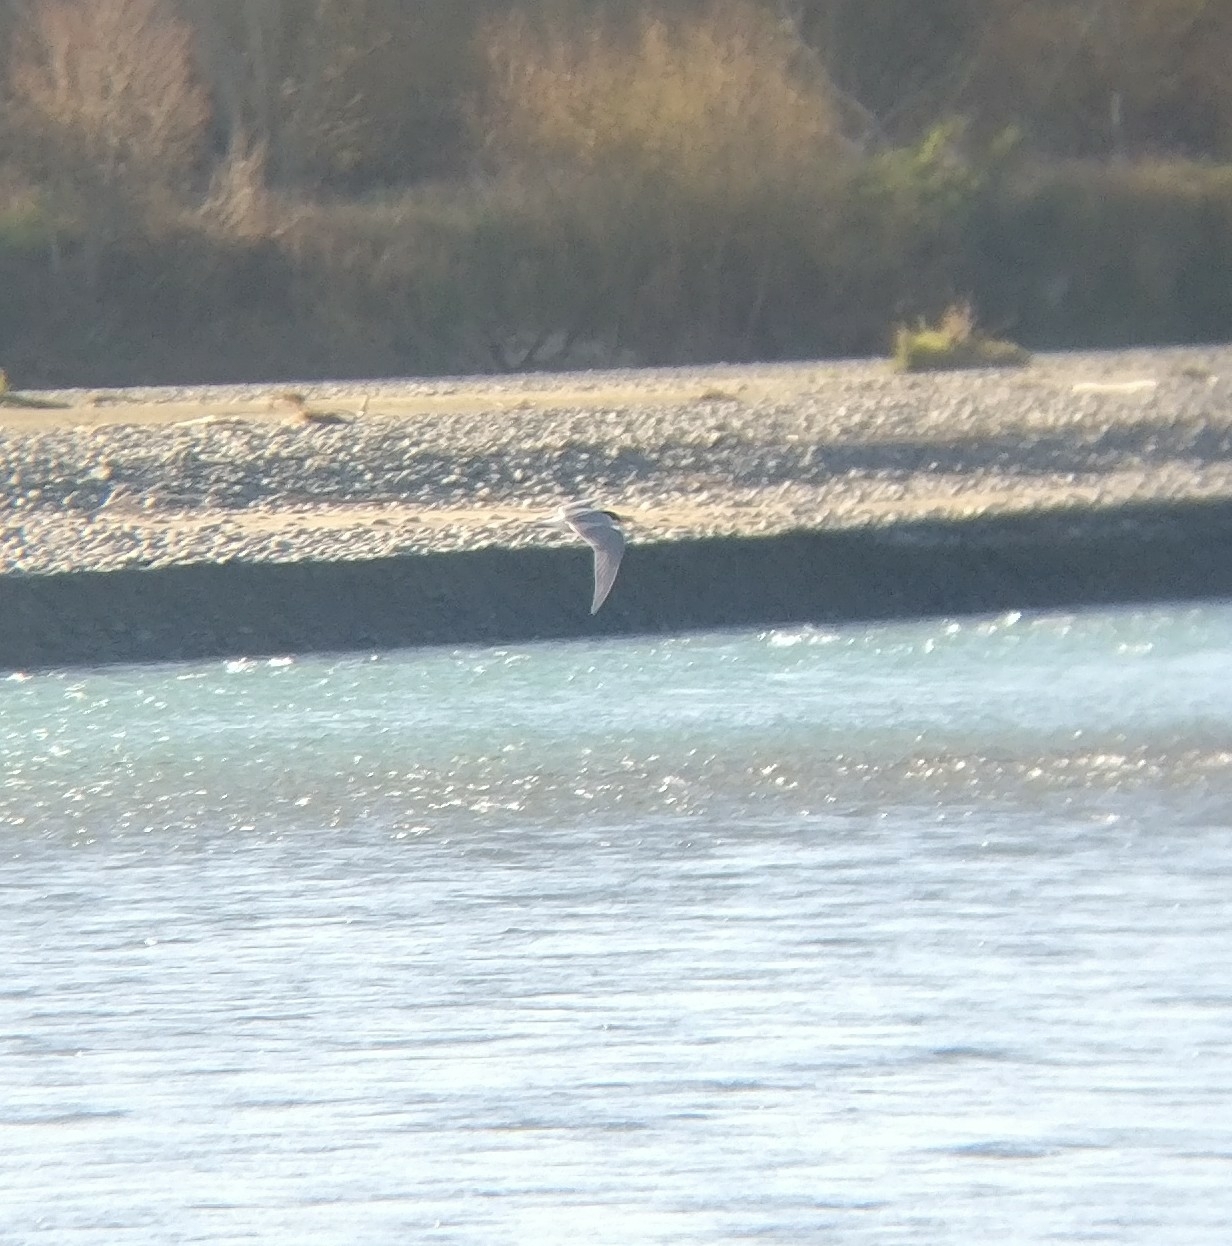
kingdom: Animalia
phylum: Chordata
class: Aves
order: Charadriiformes
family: Laridae
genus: Chlidonias
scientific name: Chlidonias albostriatus
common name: Black-fronted tern
